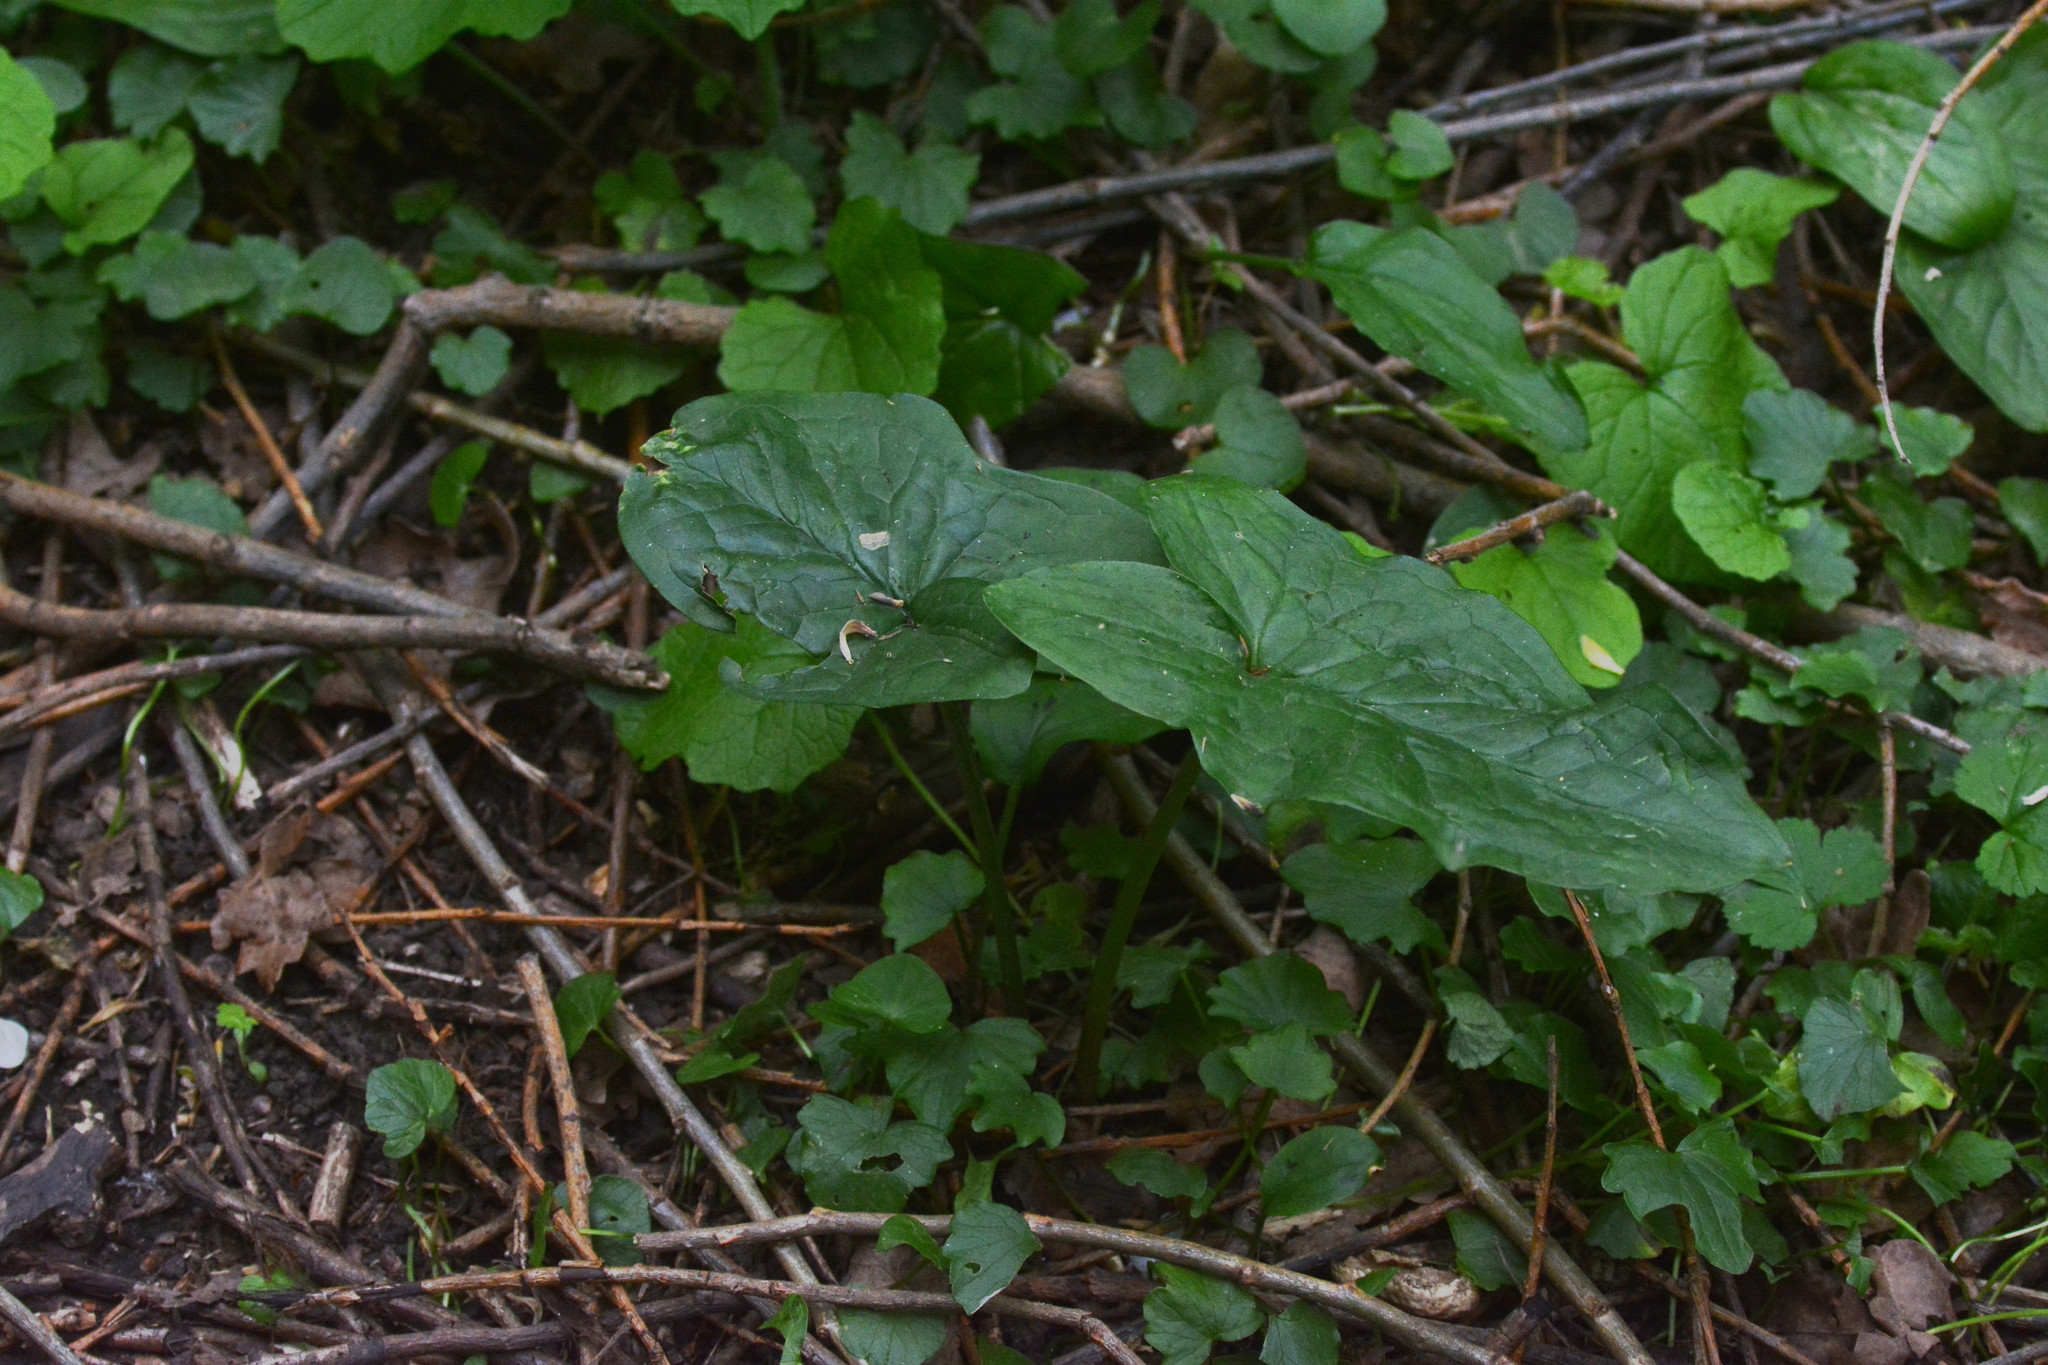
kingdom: Plantae
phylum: Tracheophyta
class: Liliopsida
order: Alismatales
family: Araceae
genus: Arum
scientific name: Arum maculatum
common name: Lords-and-ladies
